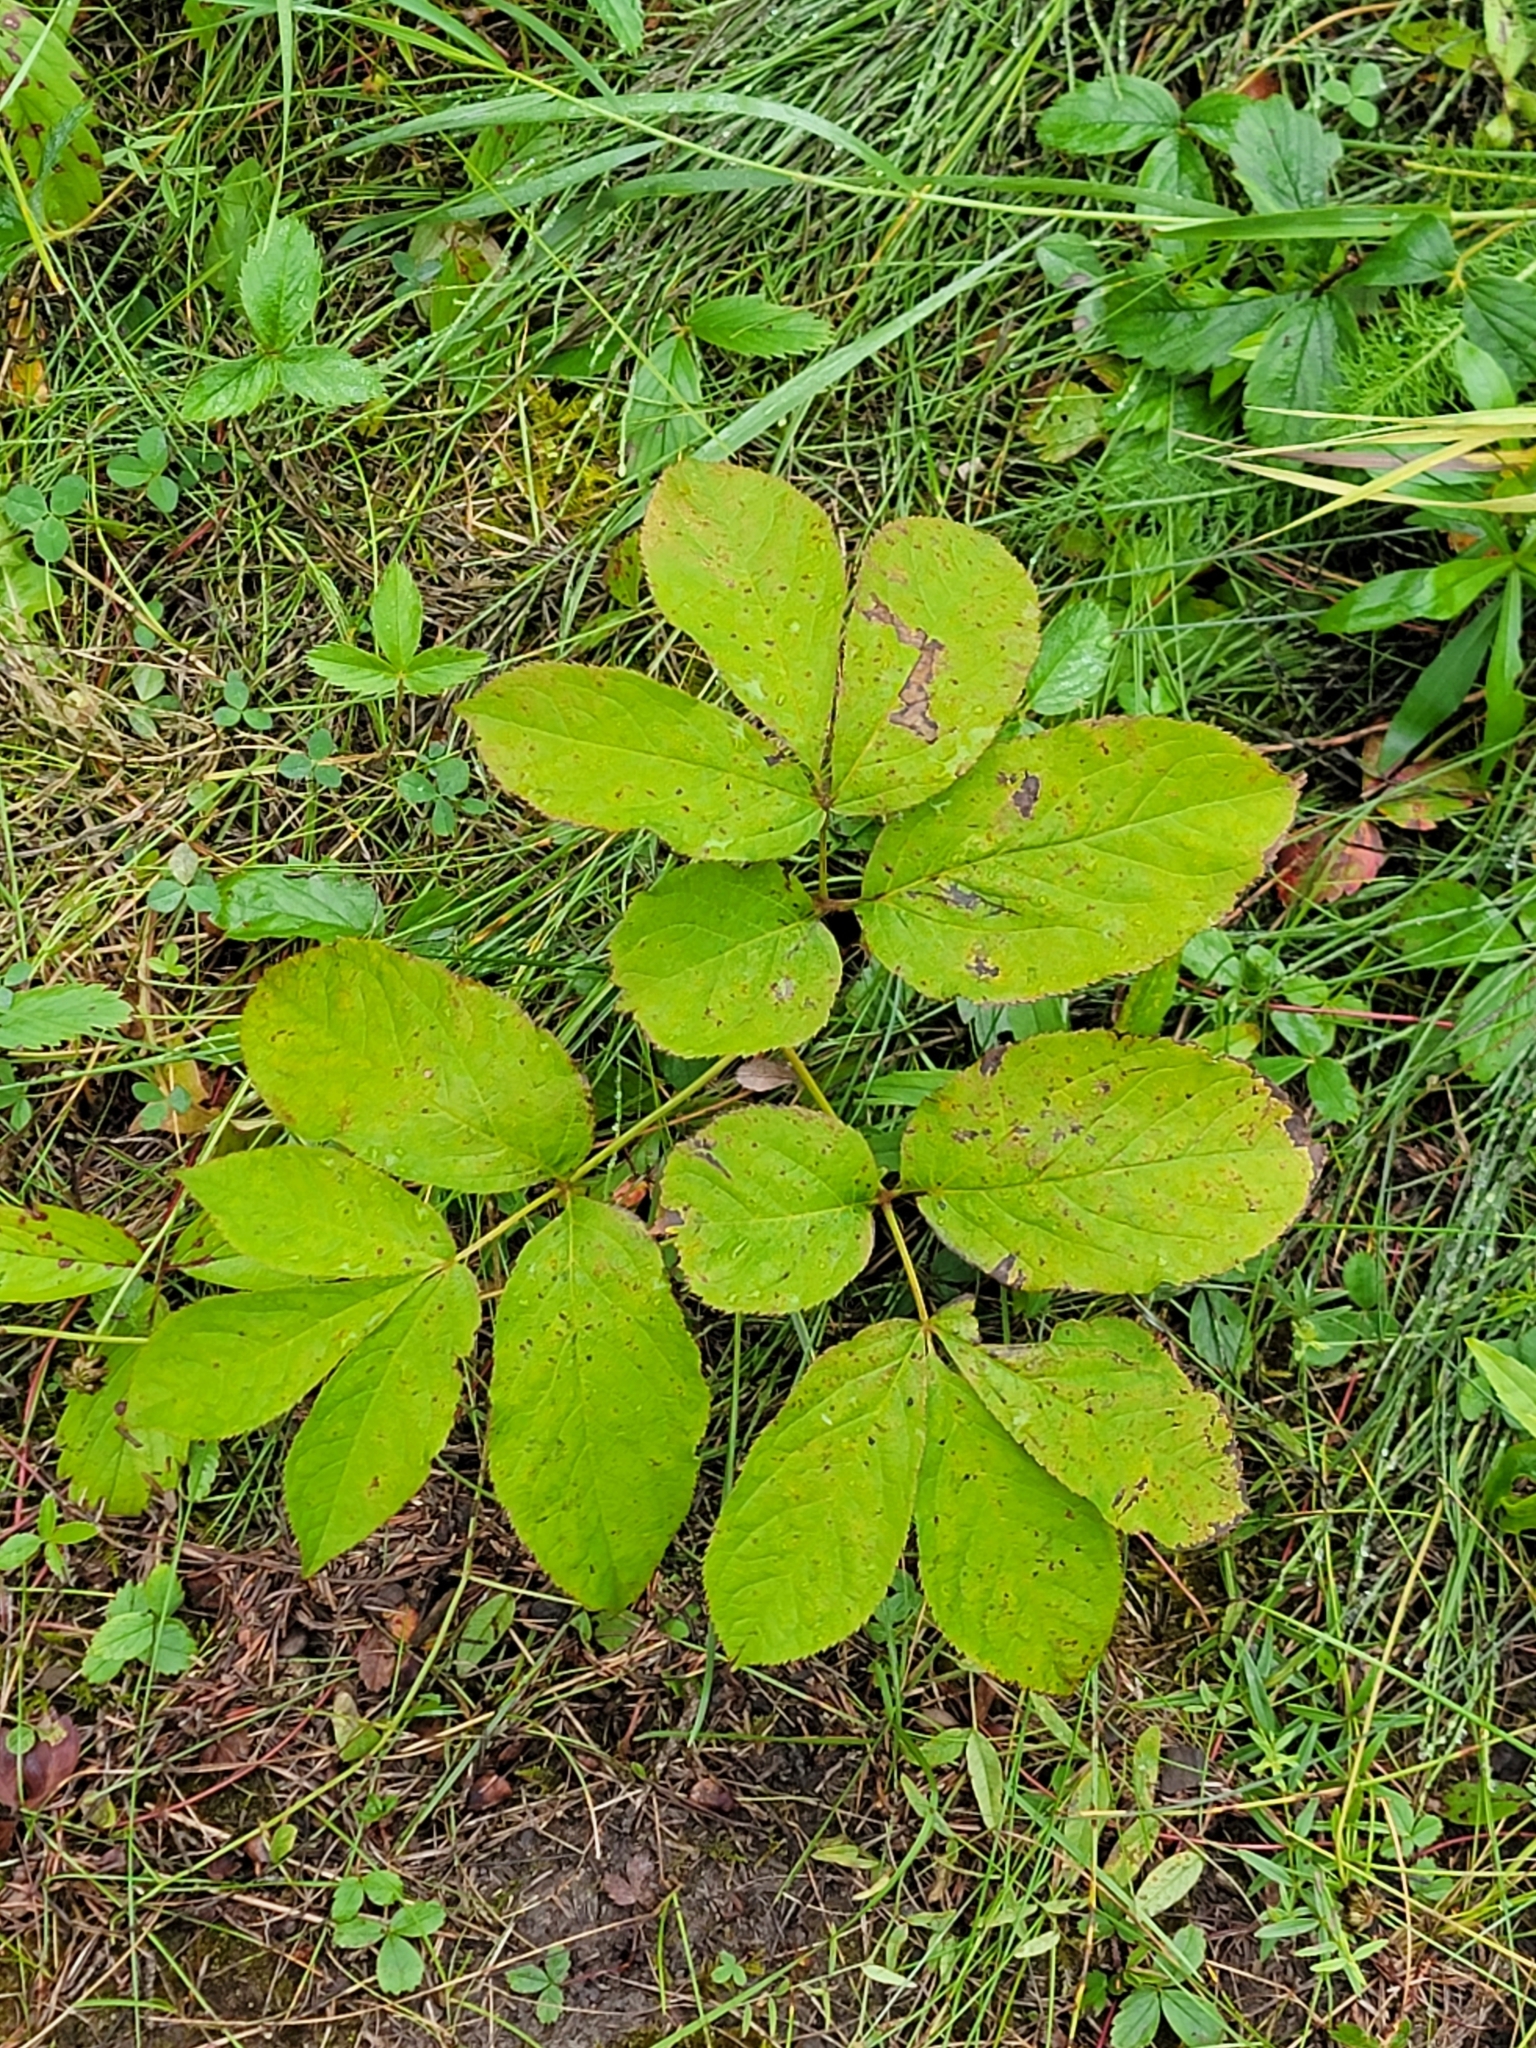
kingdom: Plantae
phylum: Tracheophyta
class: Magnoliopsida
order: Apiales
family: Araliaceae
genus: Aralia
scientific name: Aralia nudicaulis
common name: Wild sarsaparilla
